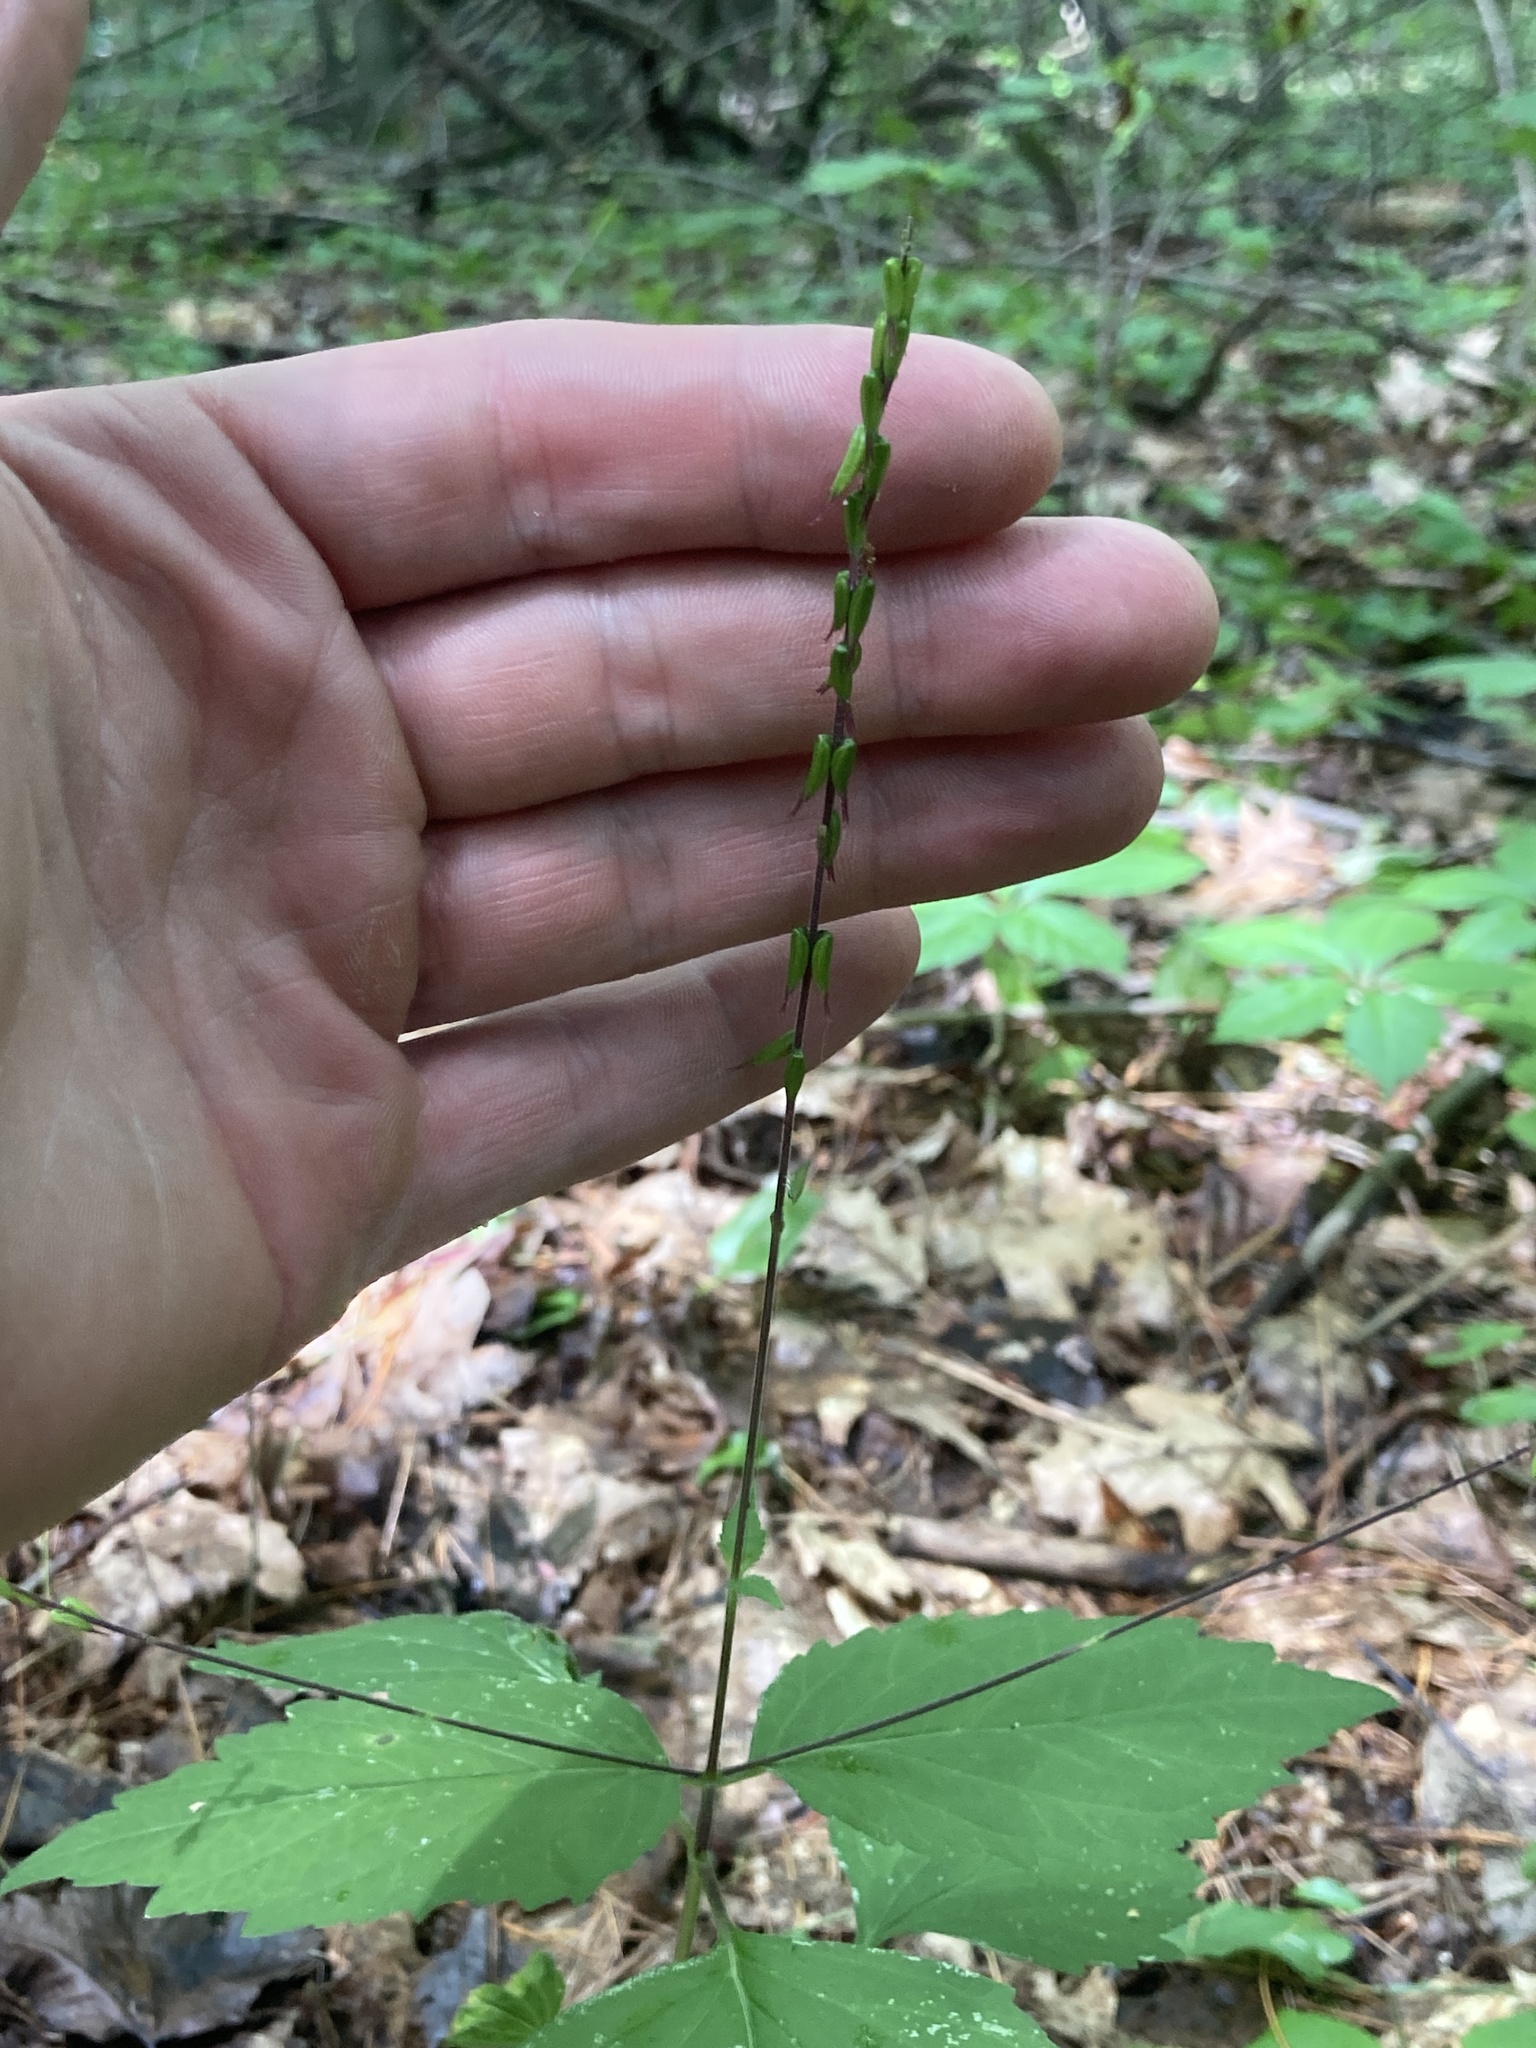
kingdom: Plantae
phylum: Tracheophyta
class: Magnoliopsida
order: Lamiales
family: Phrymaceae
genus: Phryma
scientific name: Phryma leptostachya
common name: American lopseed
